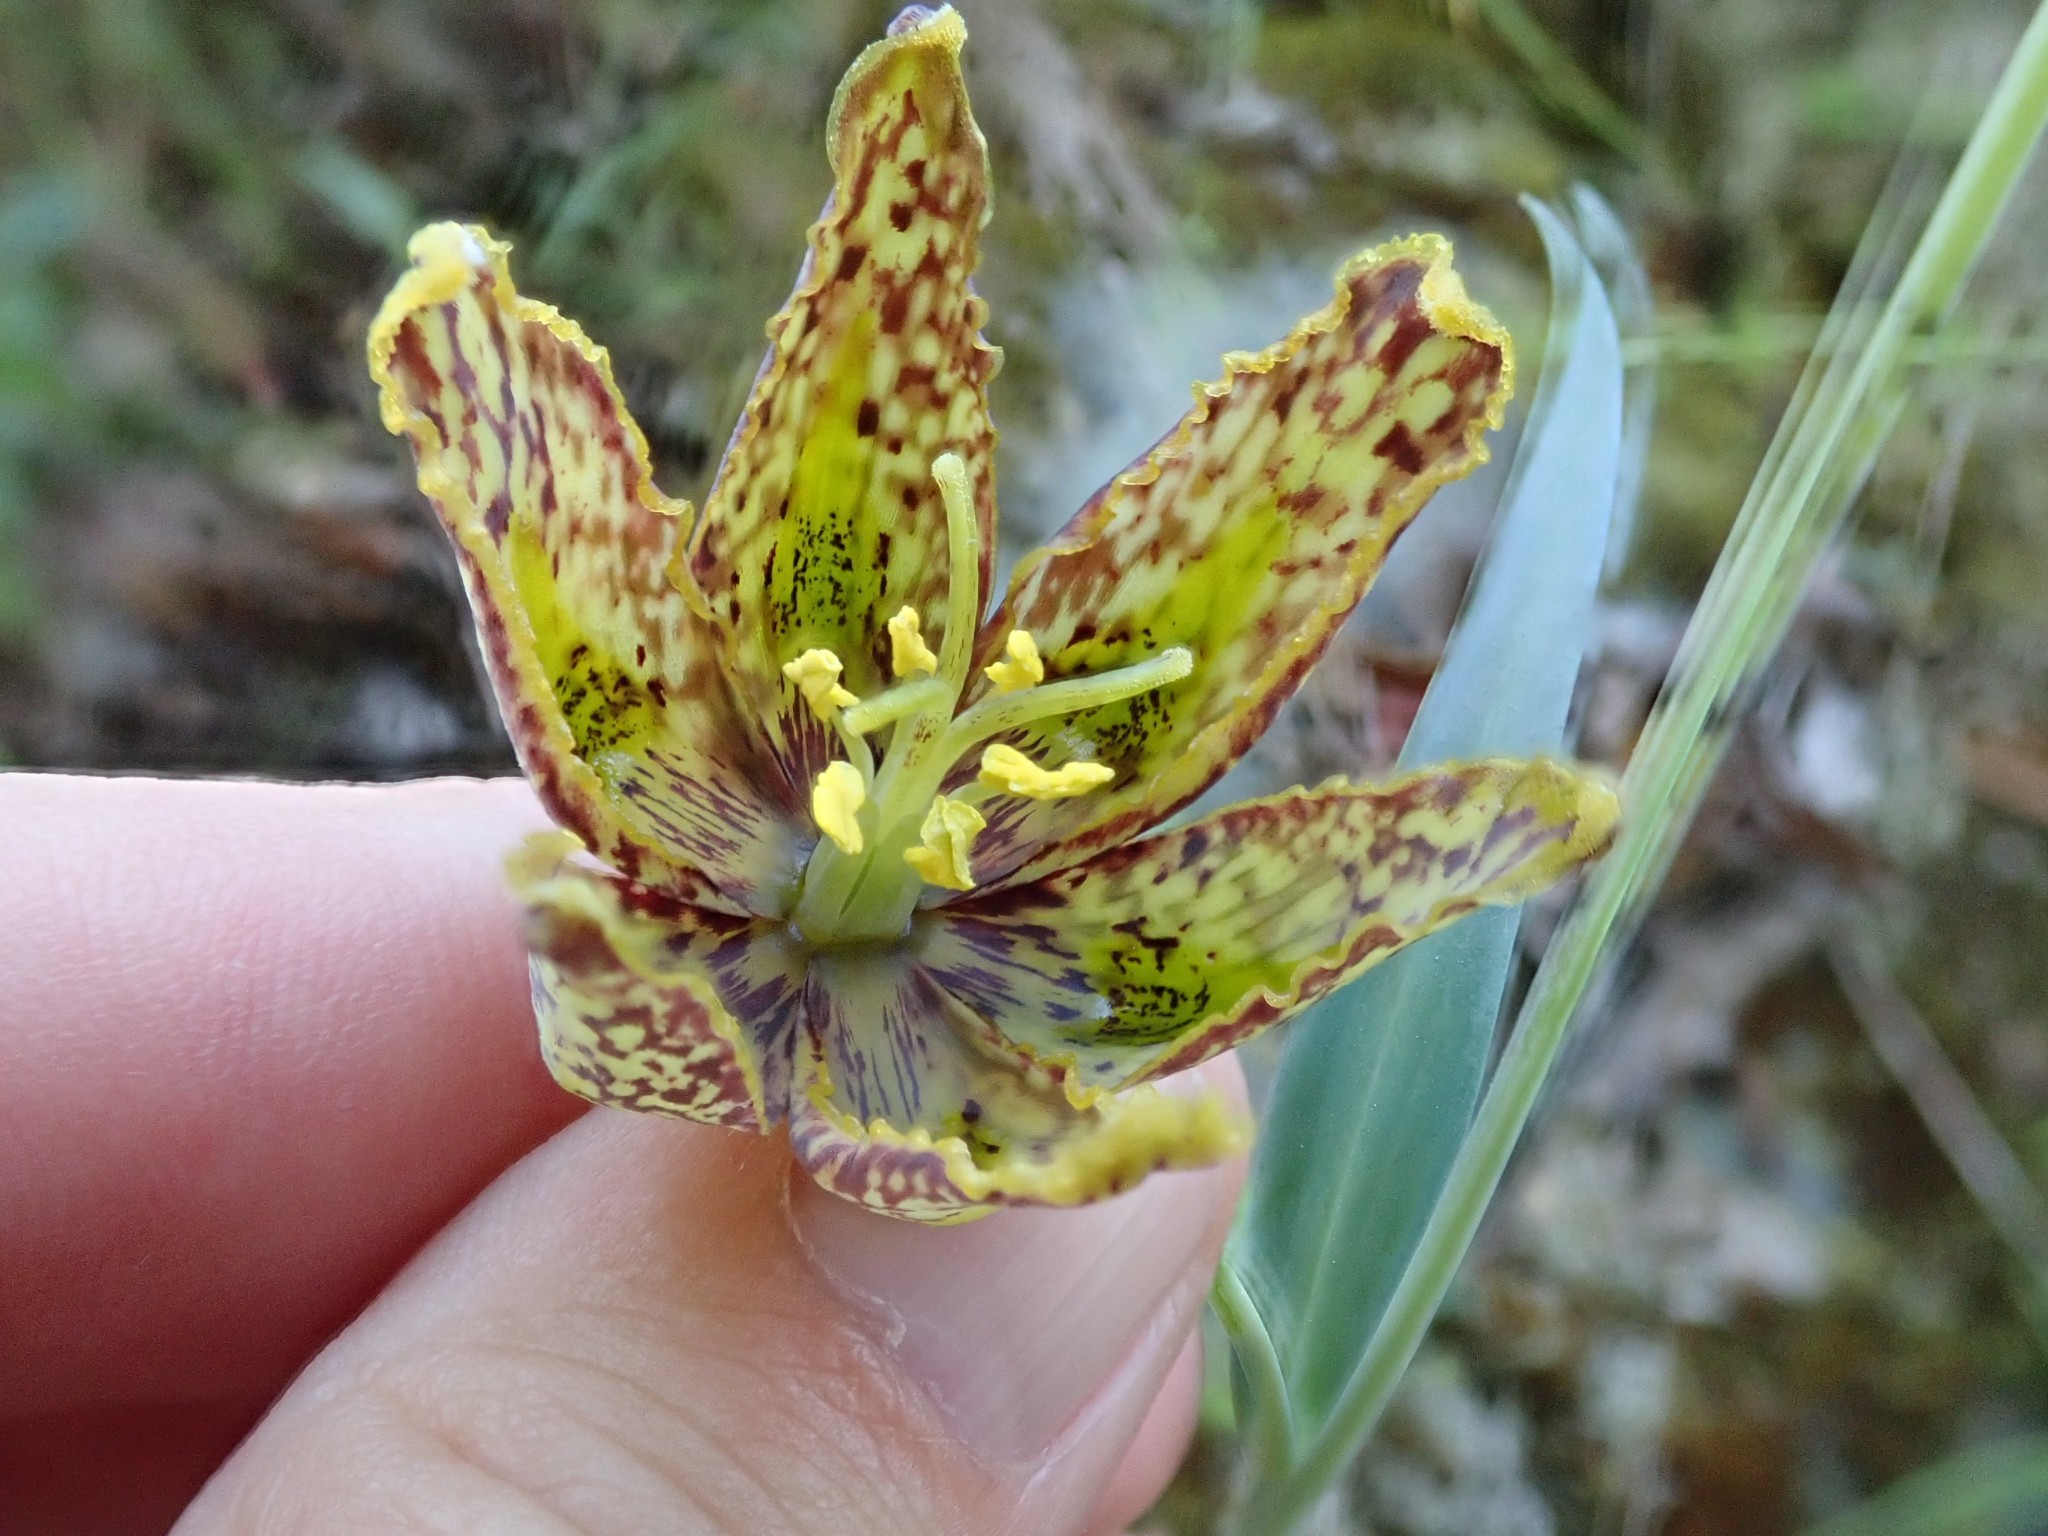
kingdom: Plantae
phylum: Tracheophyta
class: Liliopsida
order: Liliales
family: Liliaceae
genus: Fritillaria
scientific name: Fritillaria affinis
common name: Ojai fritillary
